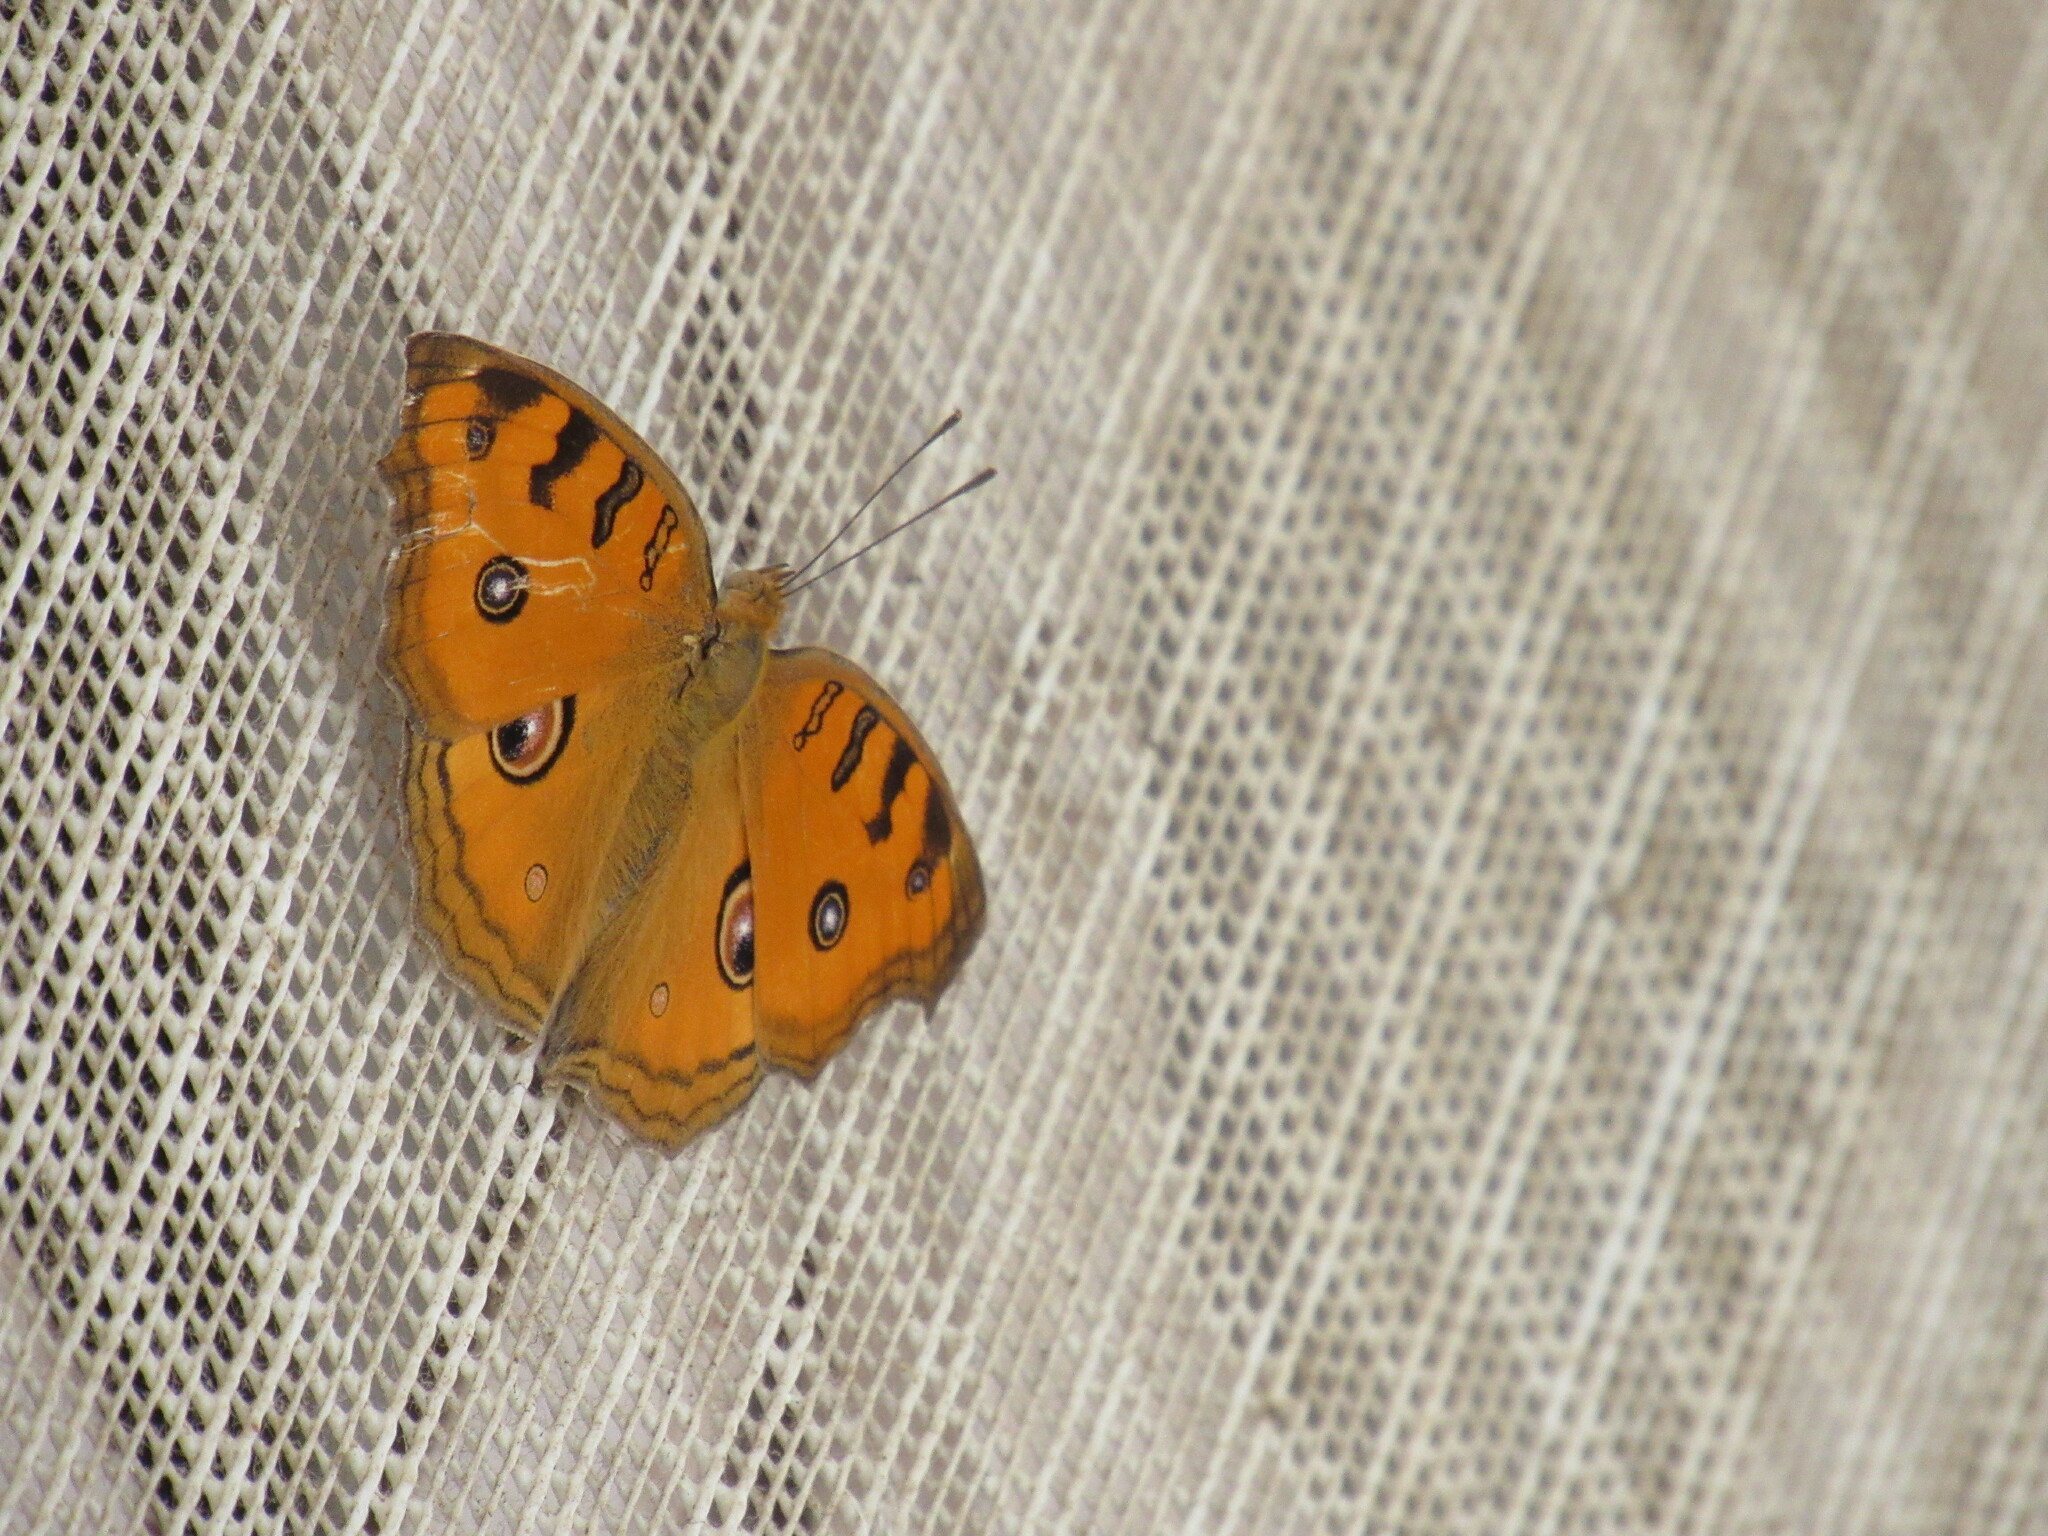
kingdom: Animalia
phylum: Arthropoda
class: Insecta
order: Lepidoptera
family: Nymphalidae
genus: Junonia
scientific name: Junonia almana
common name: Peacock pansy
